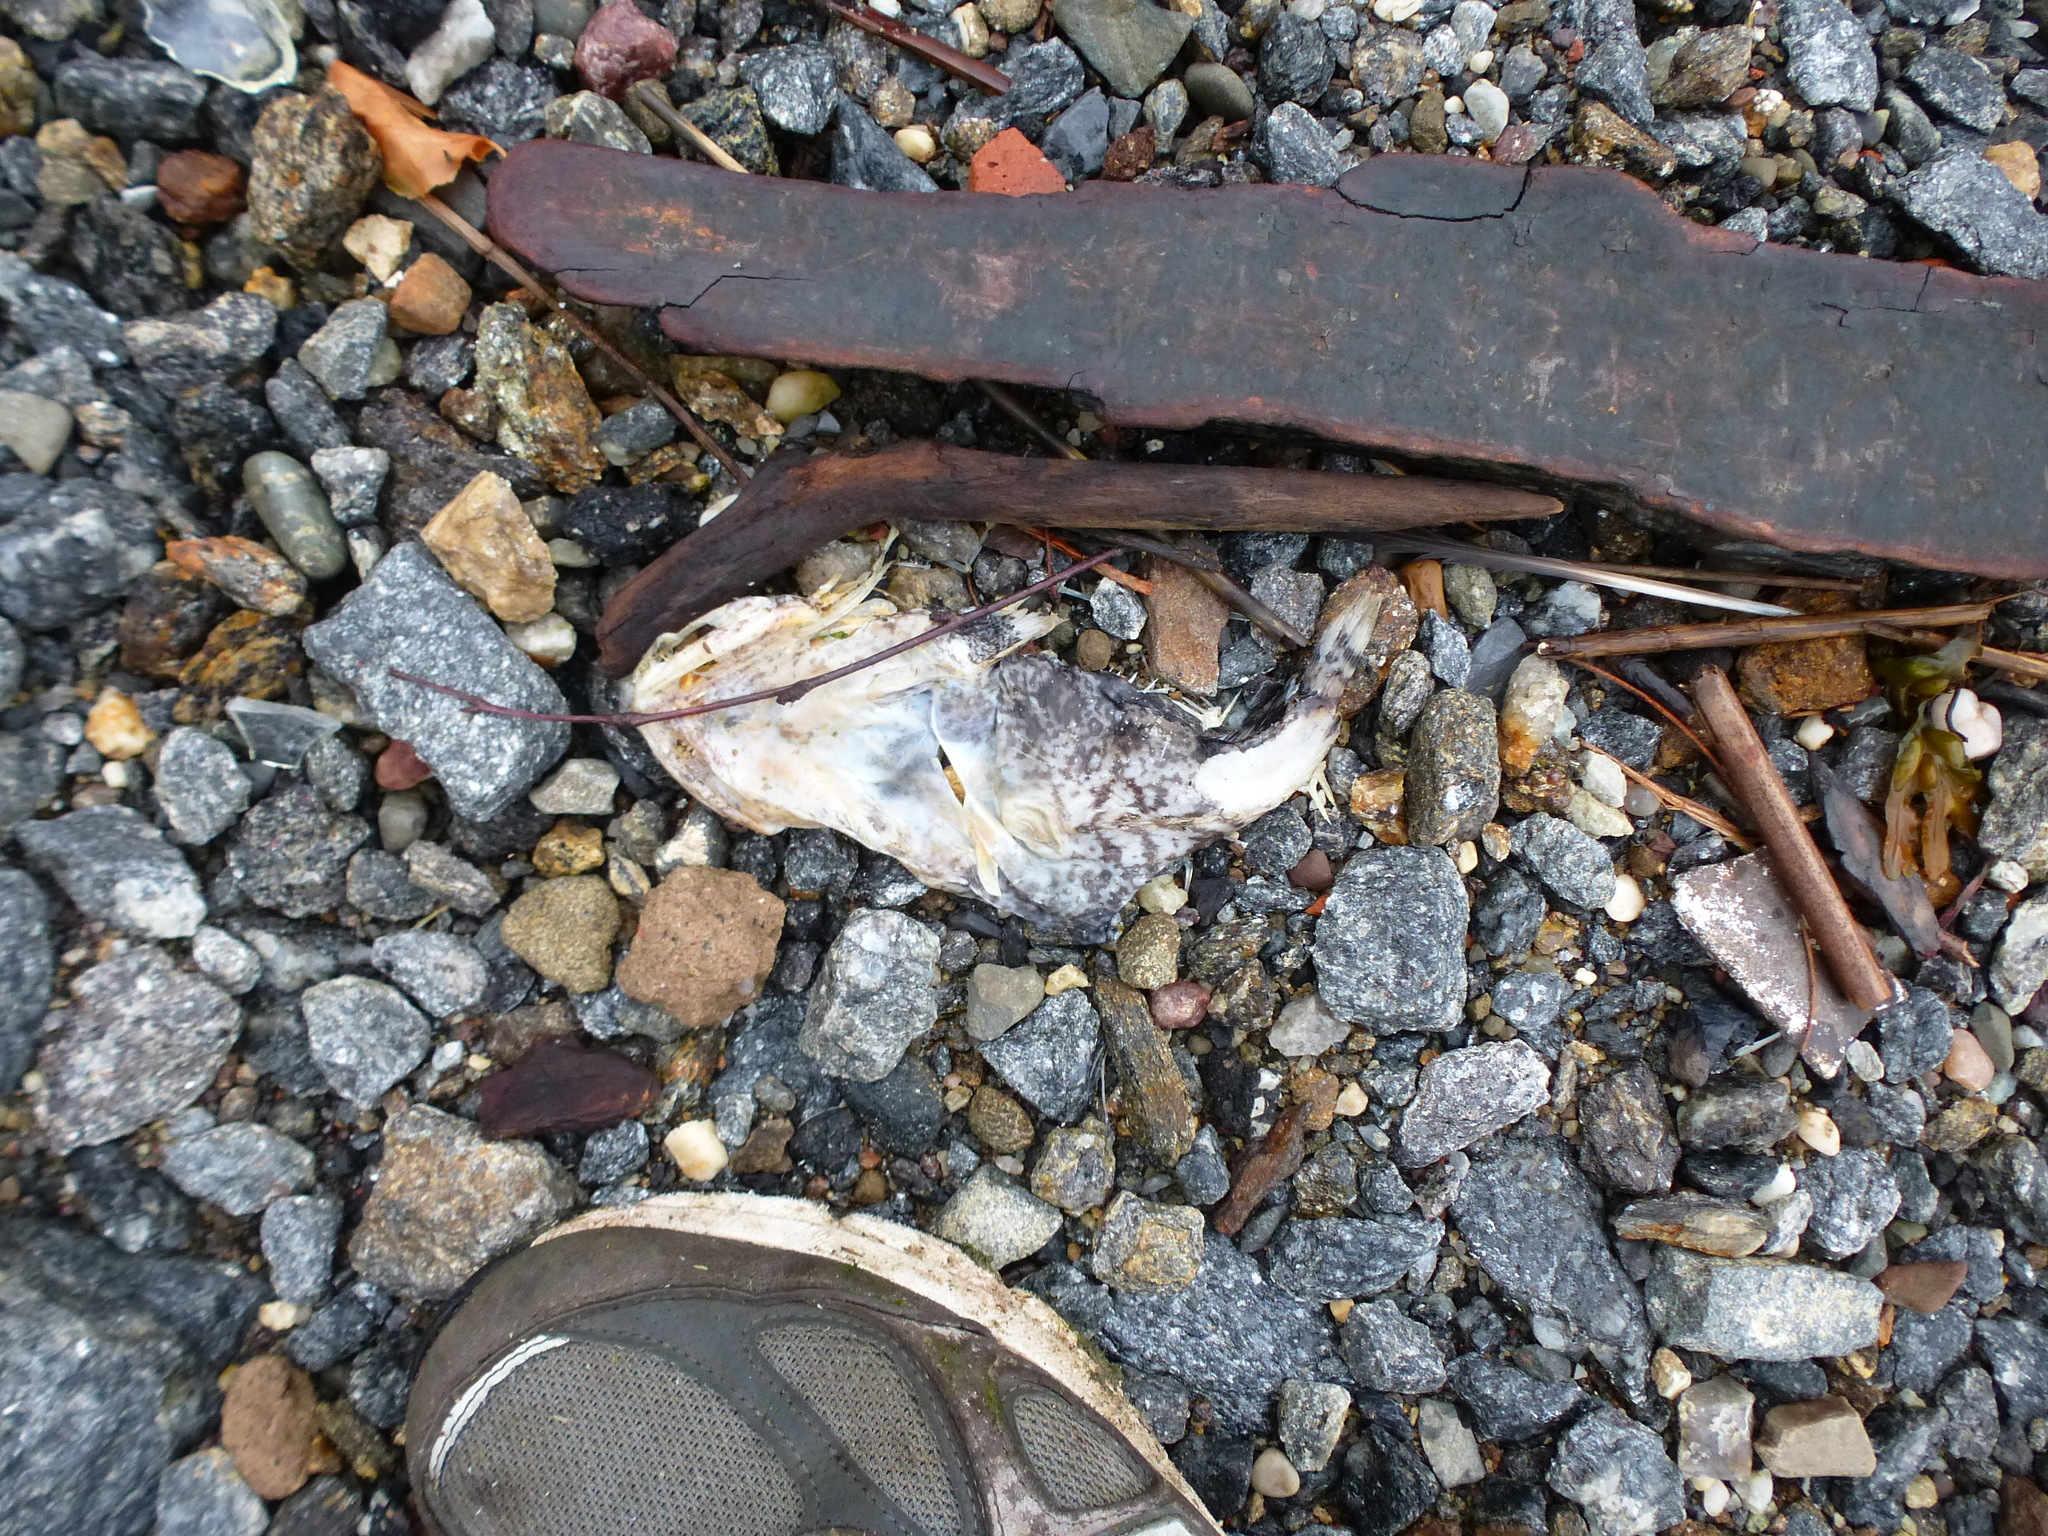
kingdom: Animalia
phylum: Chordata
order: Batrachoidiformes
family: Batrachoididae
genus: Opsanus
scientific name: Opsanus tau
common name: Oyster toadfish
